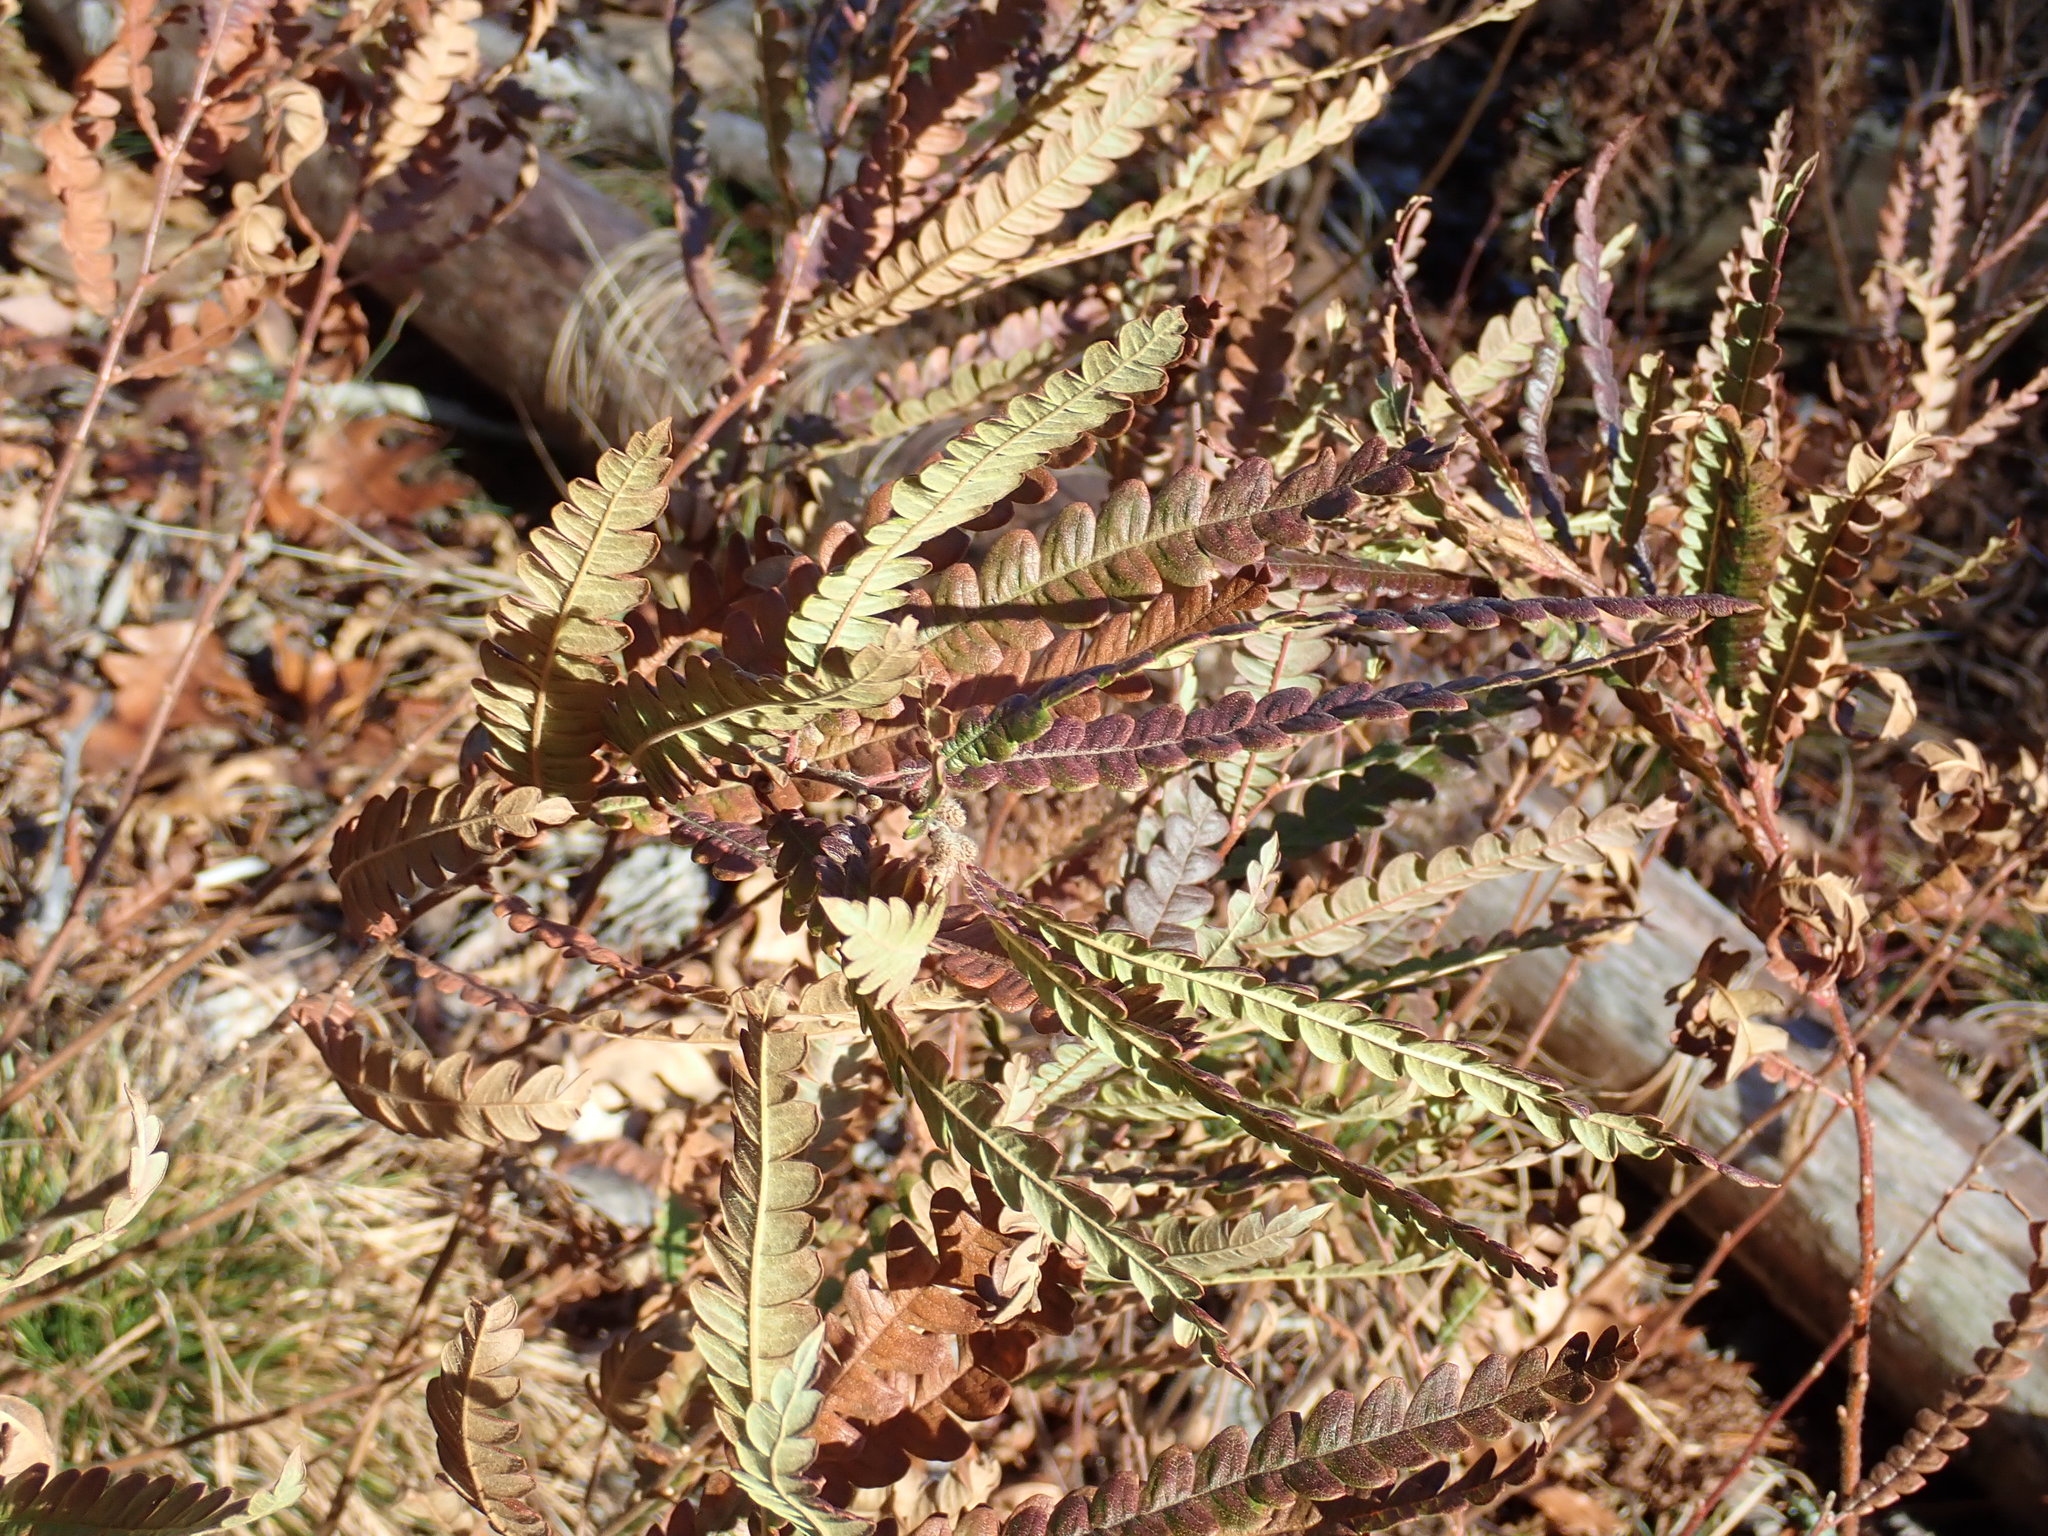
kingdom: Plantae
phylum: Tracheophyta
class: Magnoliopsida
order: Fagales
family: Myricaceae
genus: Comptonia
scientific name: Comptonia peregrina
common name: Sweet-fern
